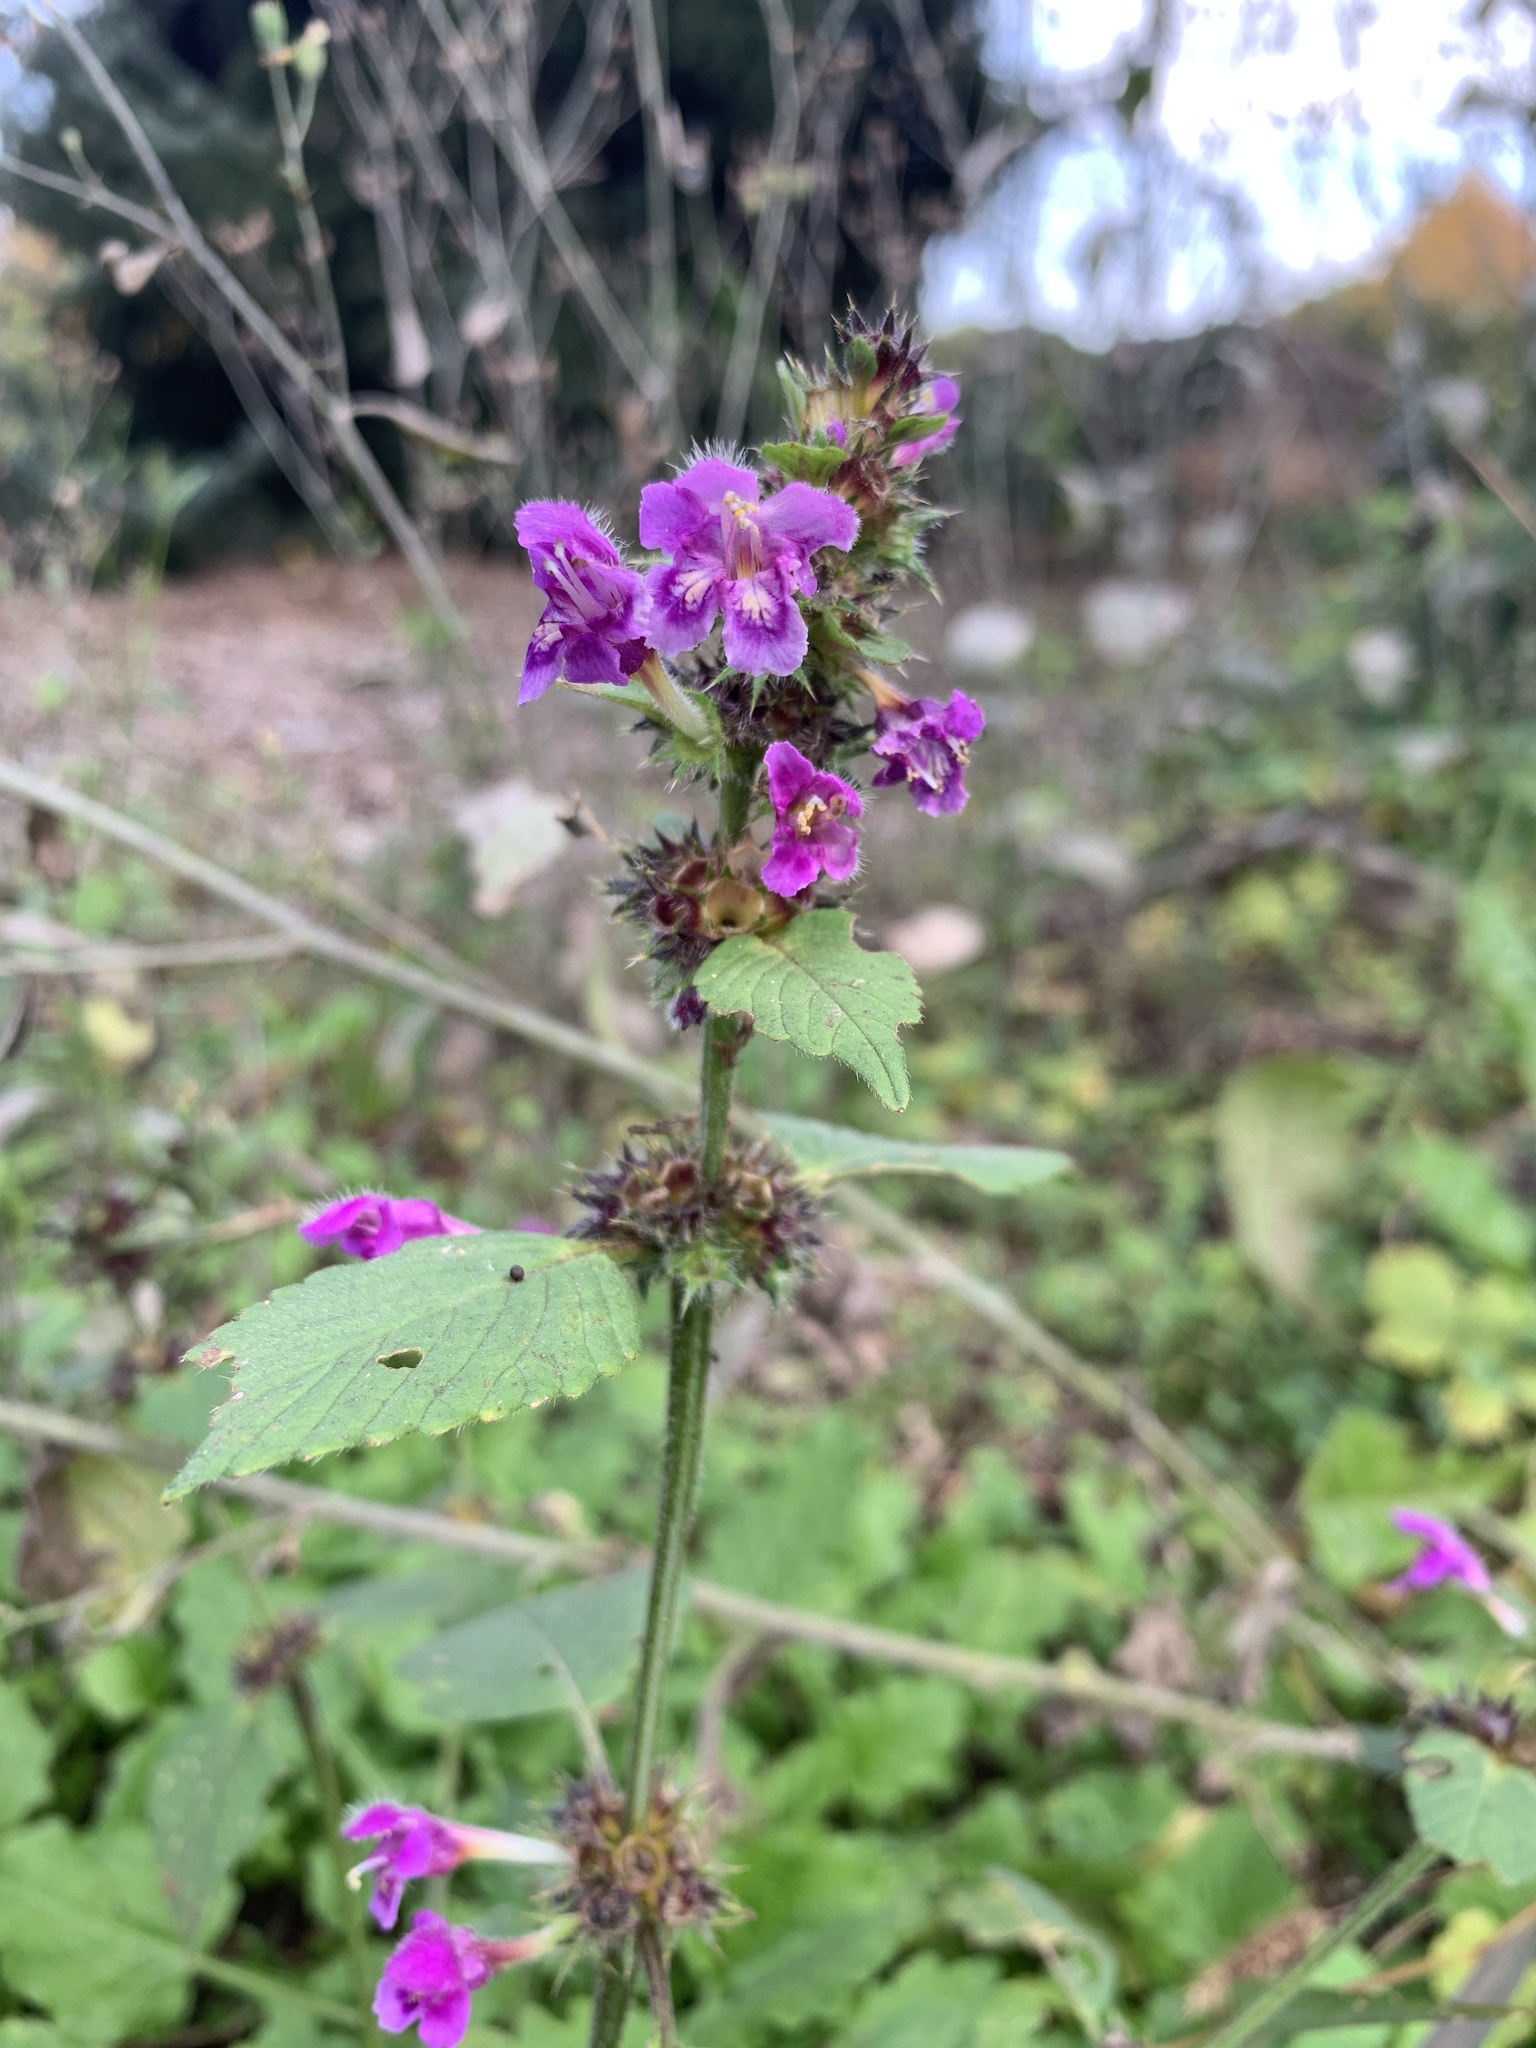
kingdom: Plantae
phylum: Tracheophyta
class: Magnoliopsida
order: Lamiales
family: Lamiaceae
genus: Galeopsis
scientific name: Galeopsis pubescens
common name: Downy hemp-nettle
